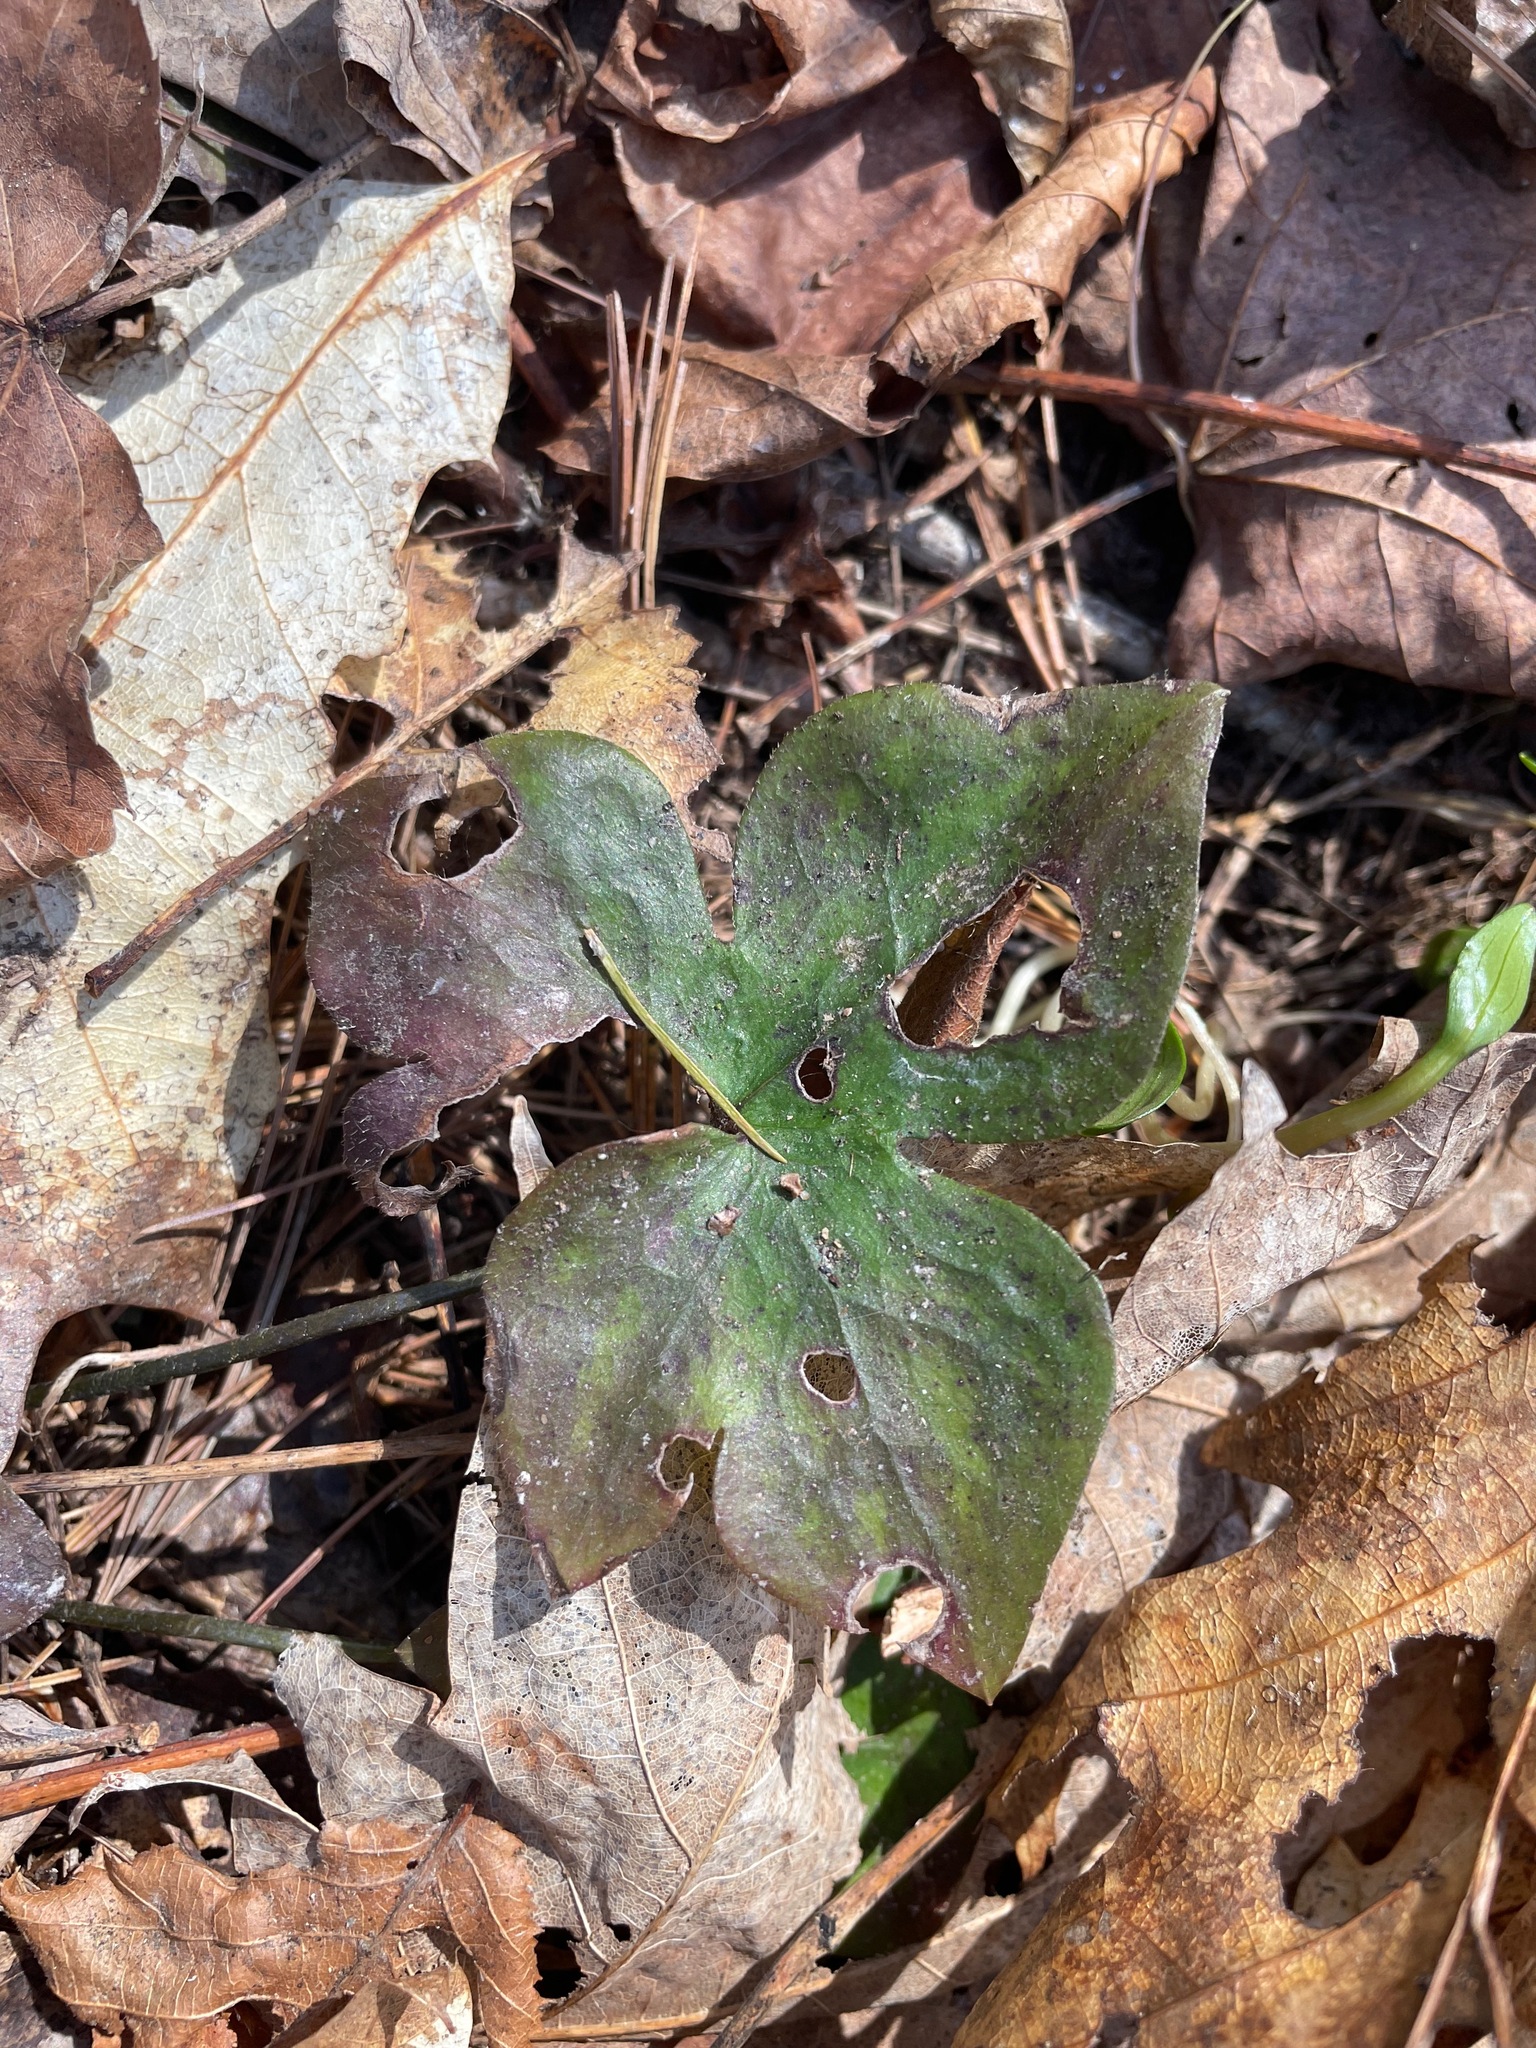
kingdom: Plantae
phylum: Tracheophyta
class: Magnoliopsida
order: Ranunculales
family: Ranunculaceae
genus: Hepatica
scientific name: Hepatica acutiloba
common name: Sharp-lobed hepatica
